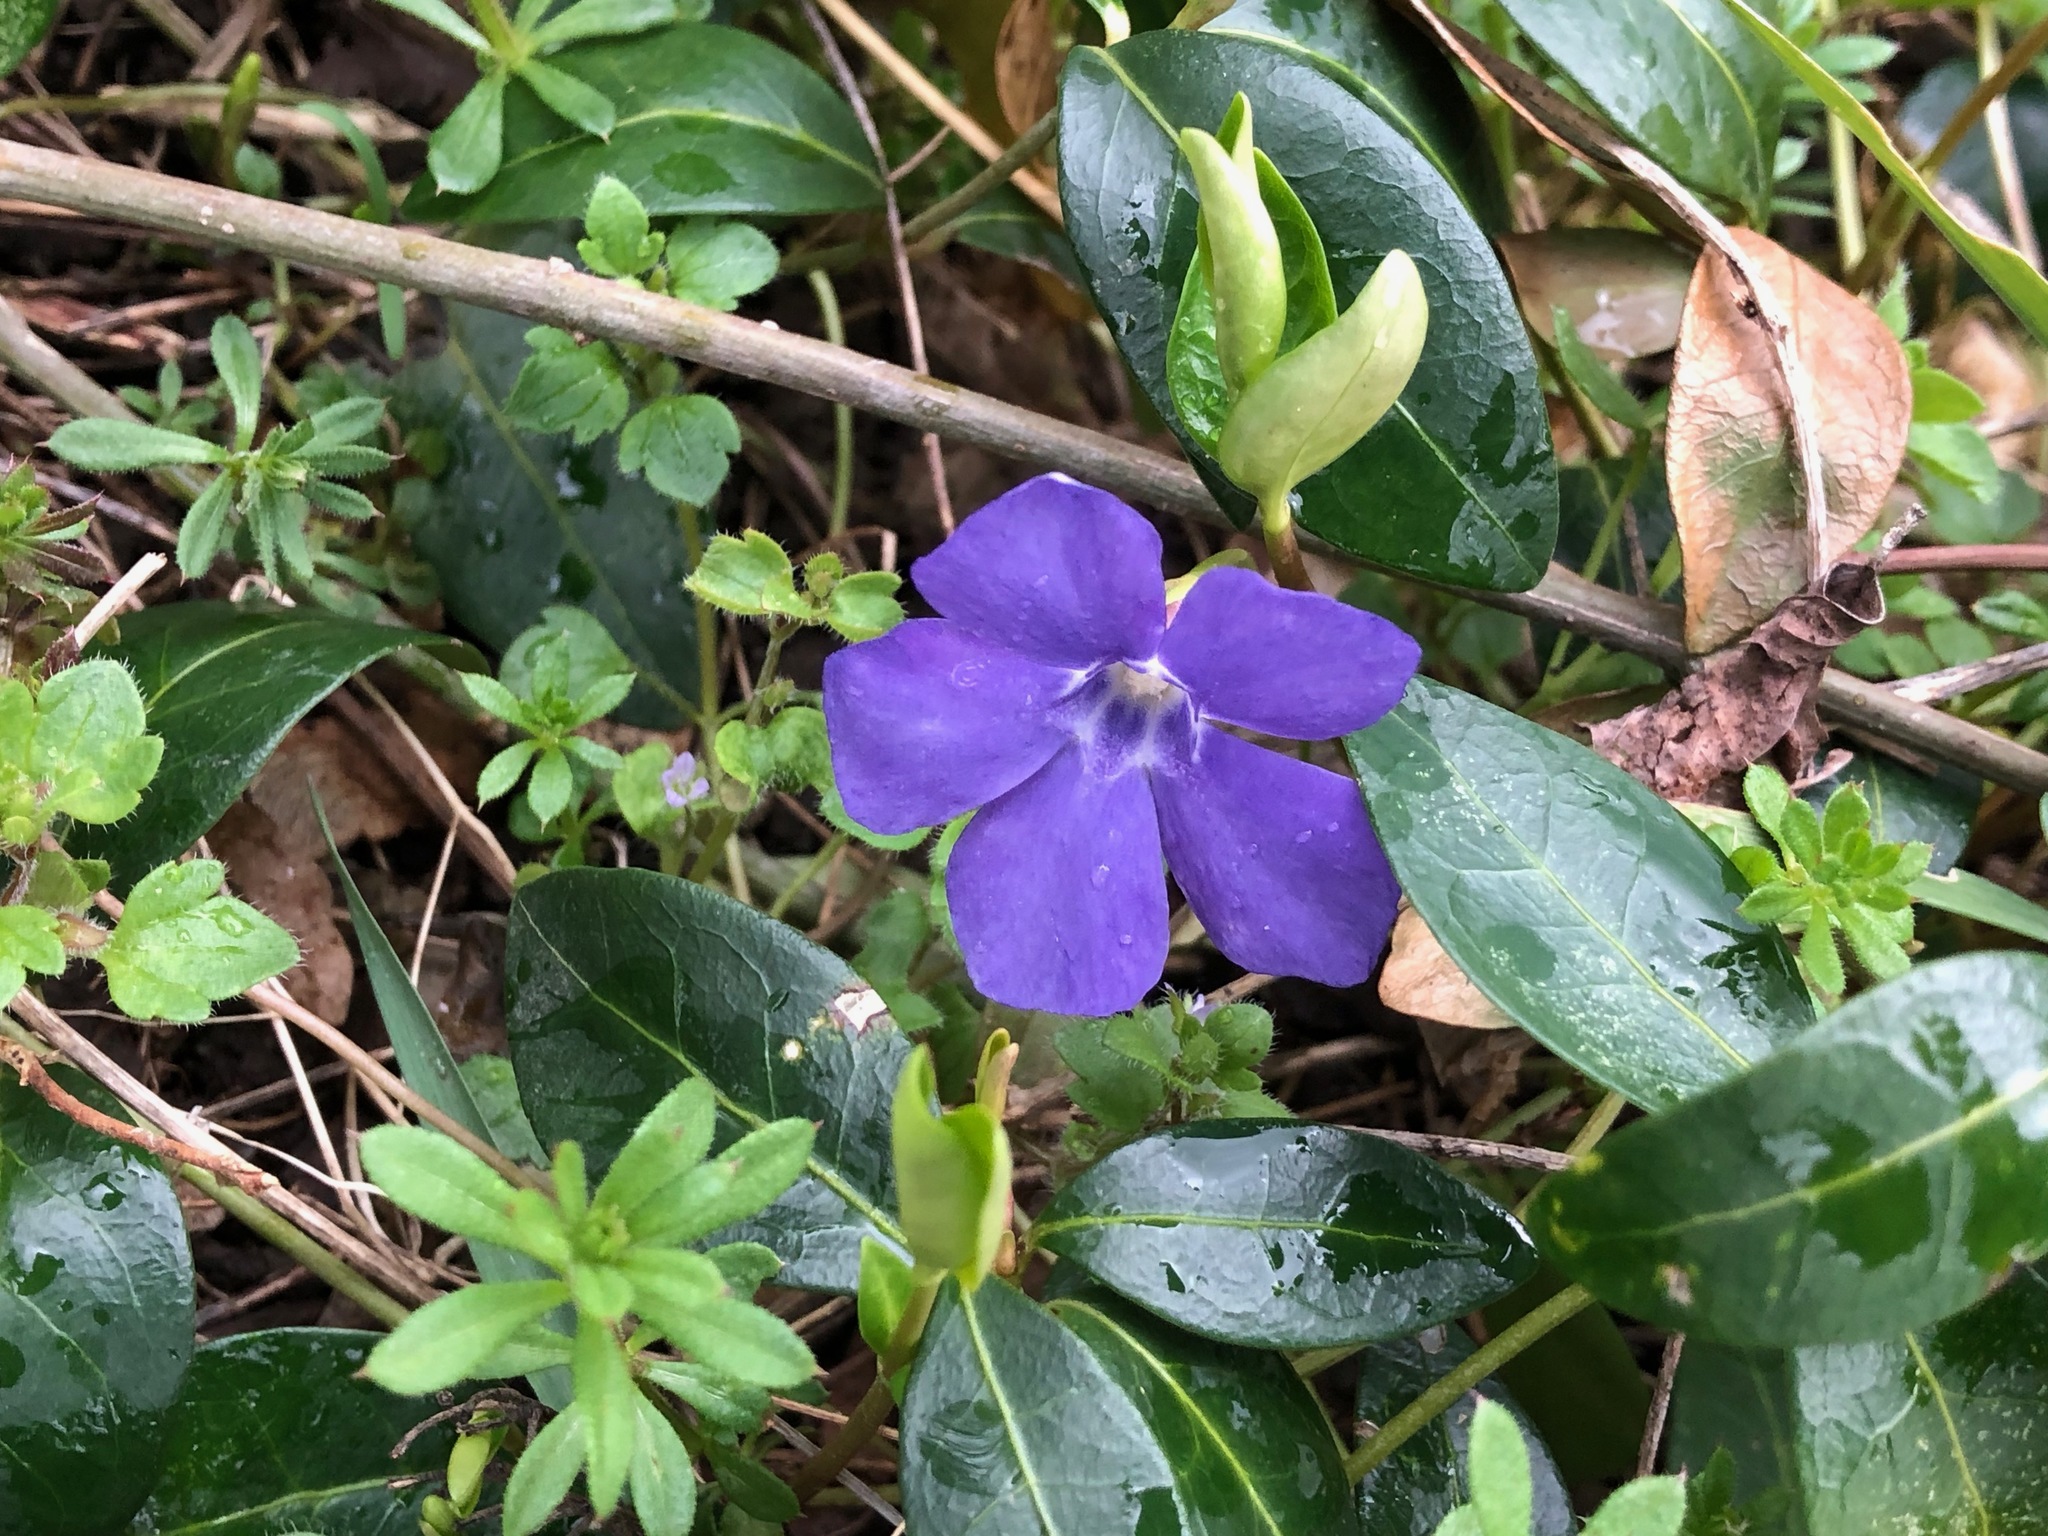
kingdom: Plantae
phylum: Tracheophyta
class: Magnoliopsida
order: Gentianales
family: Apocynaceae
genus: Vinca
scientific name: Vinca minor
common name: Lesser periwinkle
